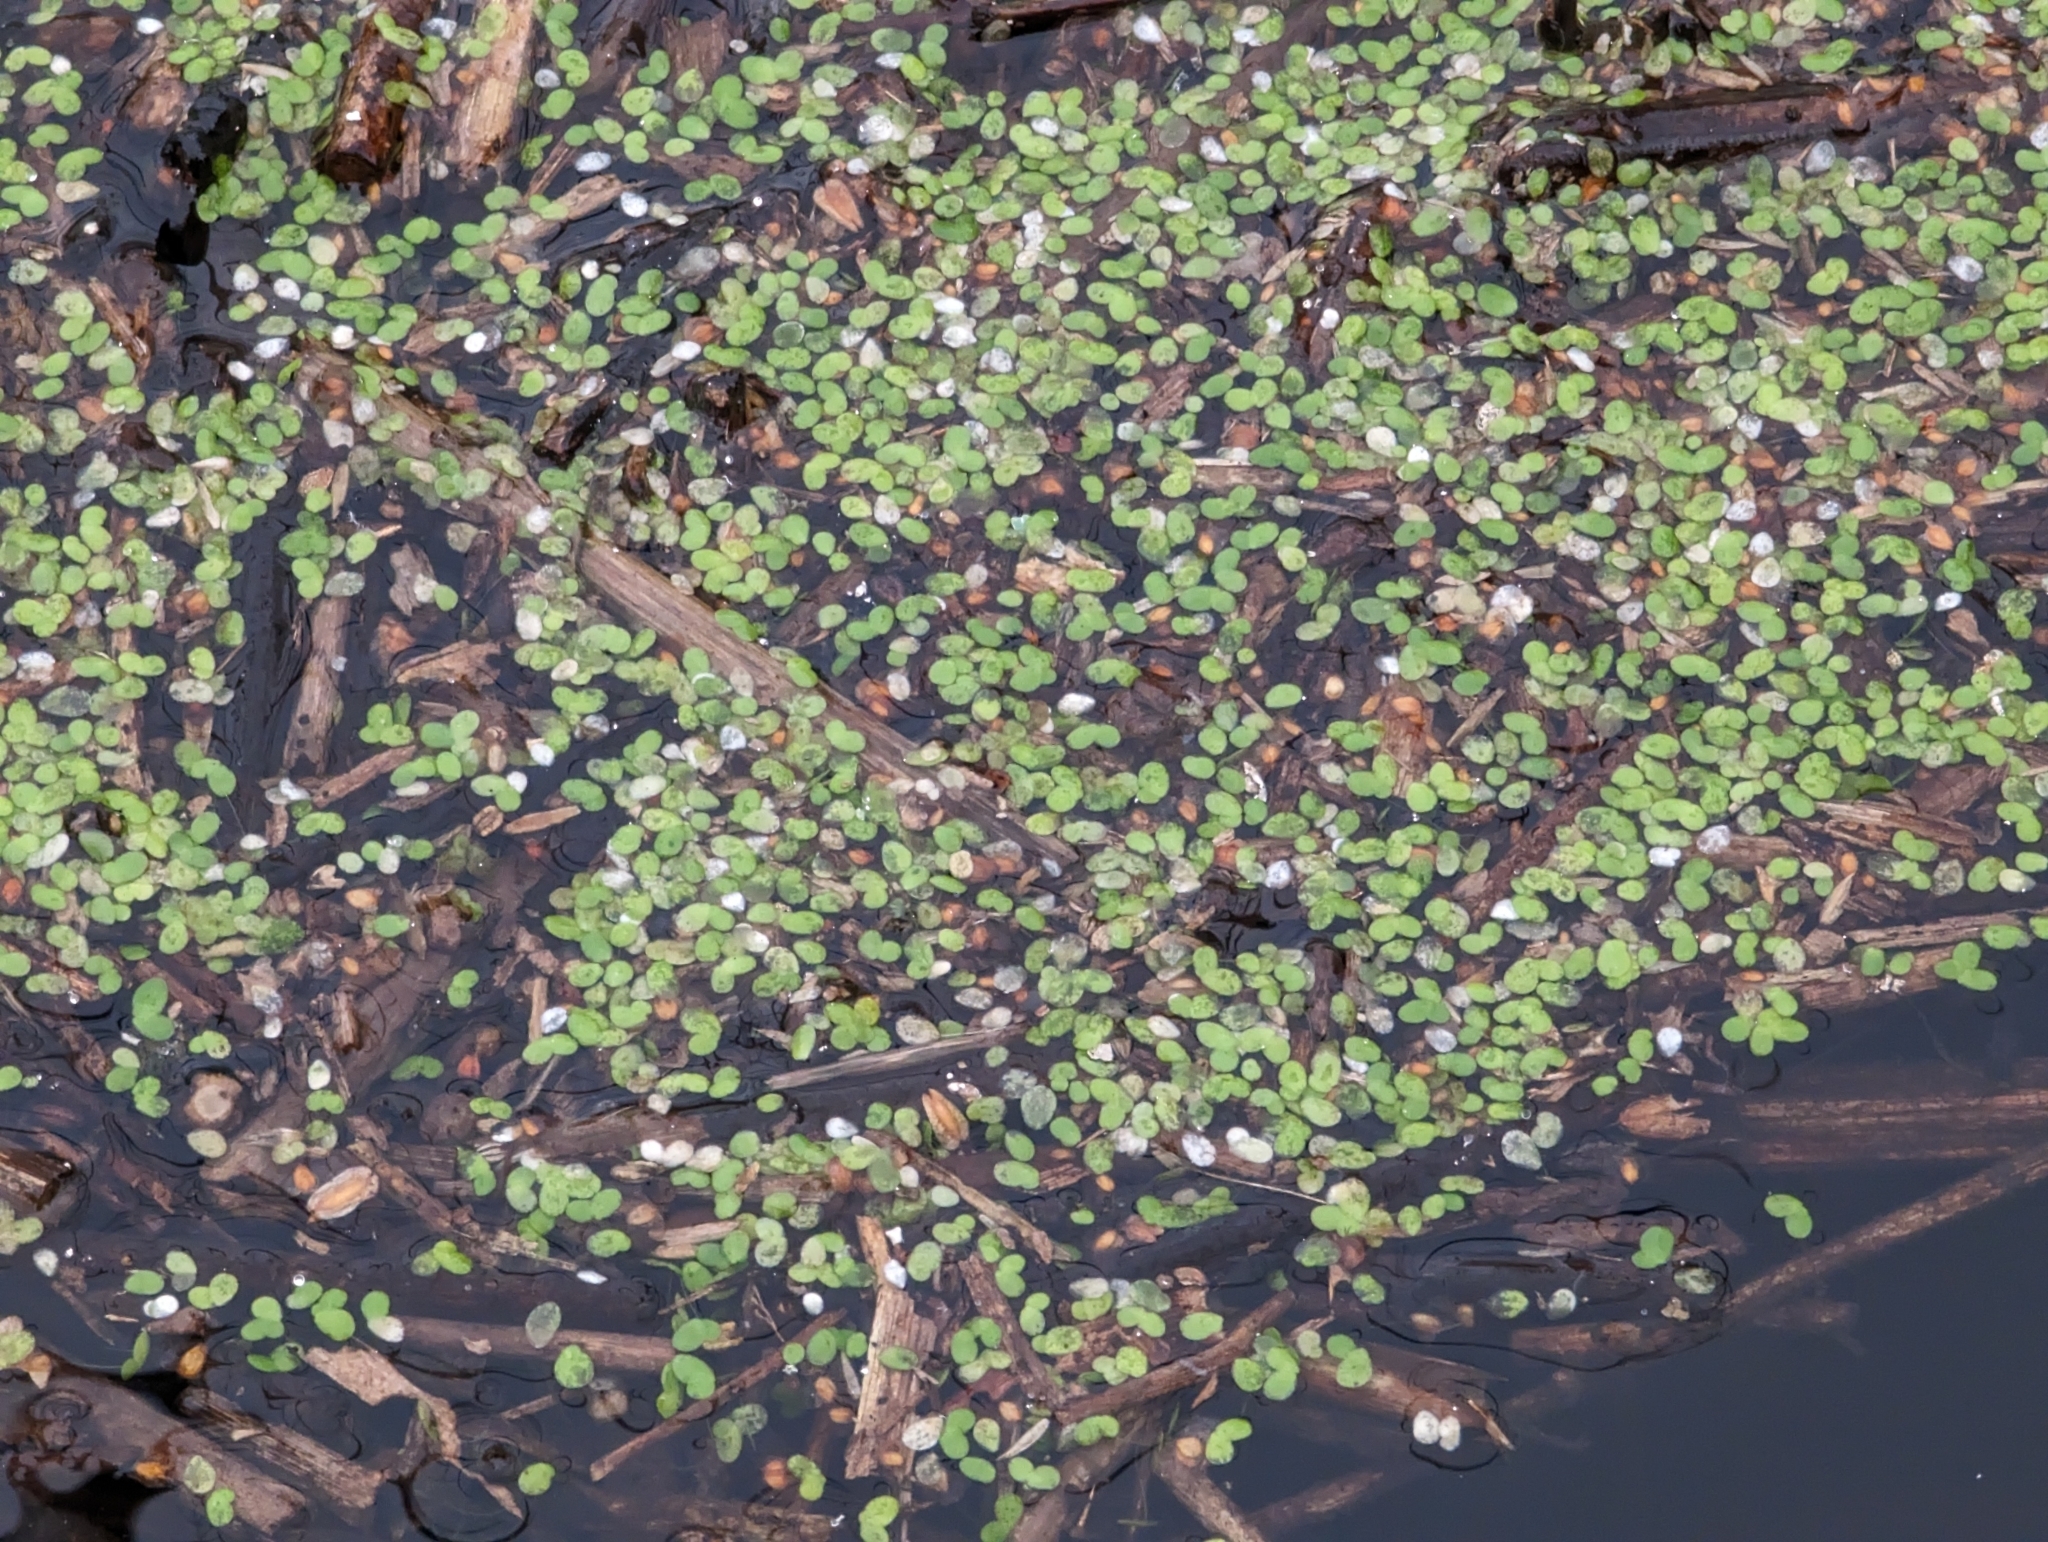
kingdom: Plantae
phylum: Tracheophyta
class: Liliopsida
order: Alismatales
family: Araceae
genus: Lemna
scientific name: Lemna minor
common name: Common duckweed
